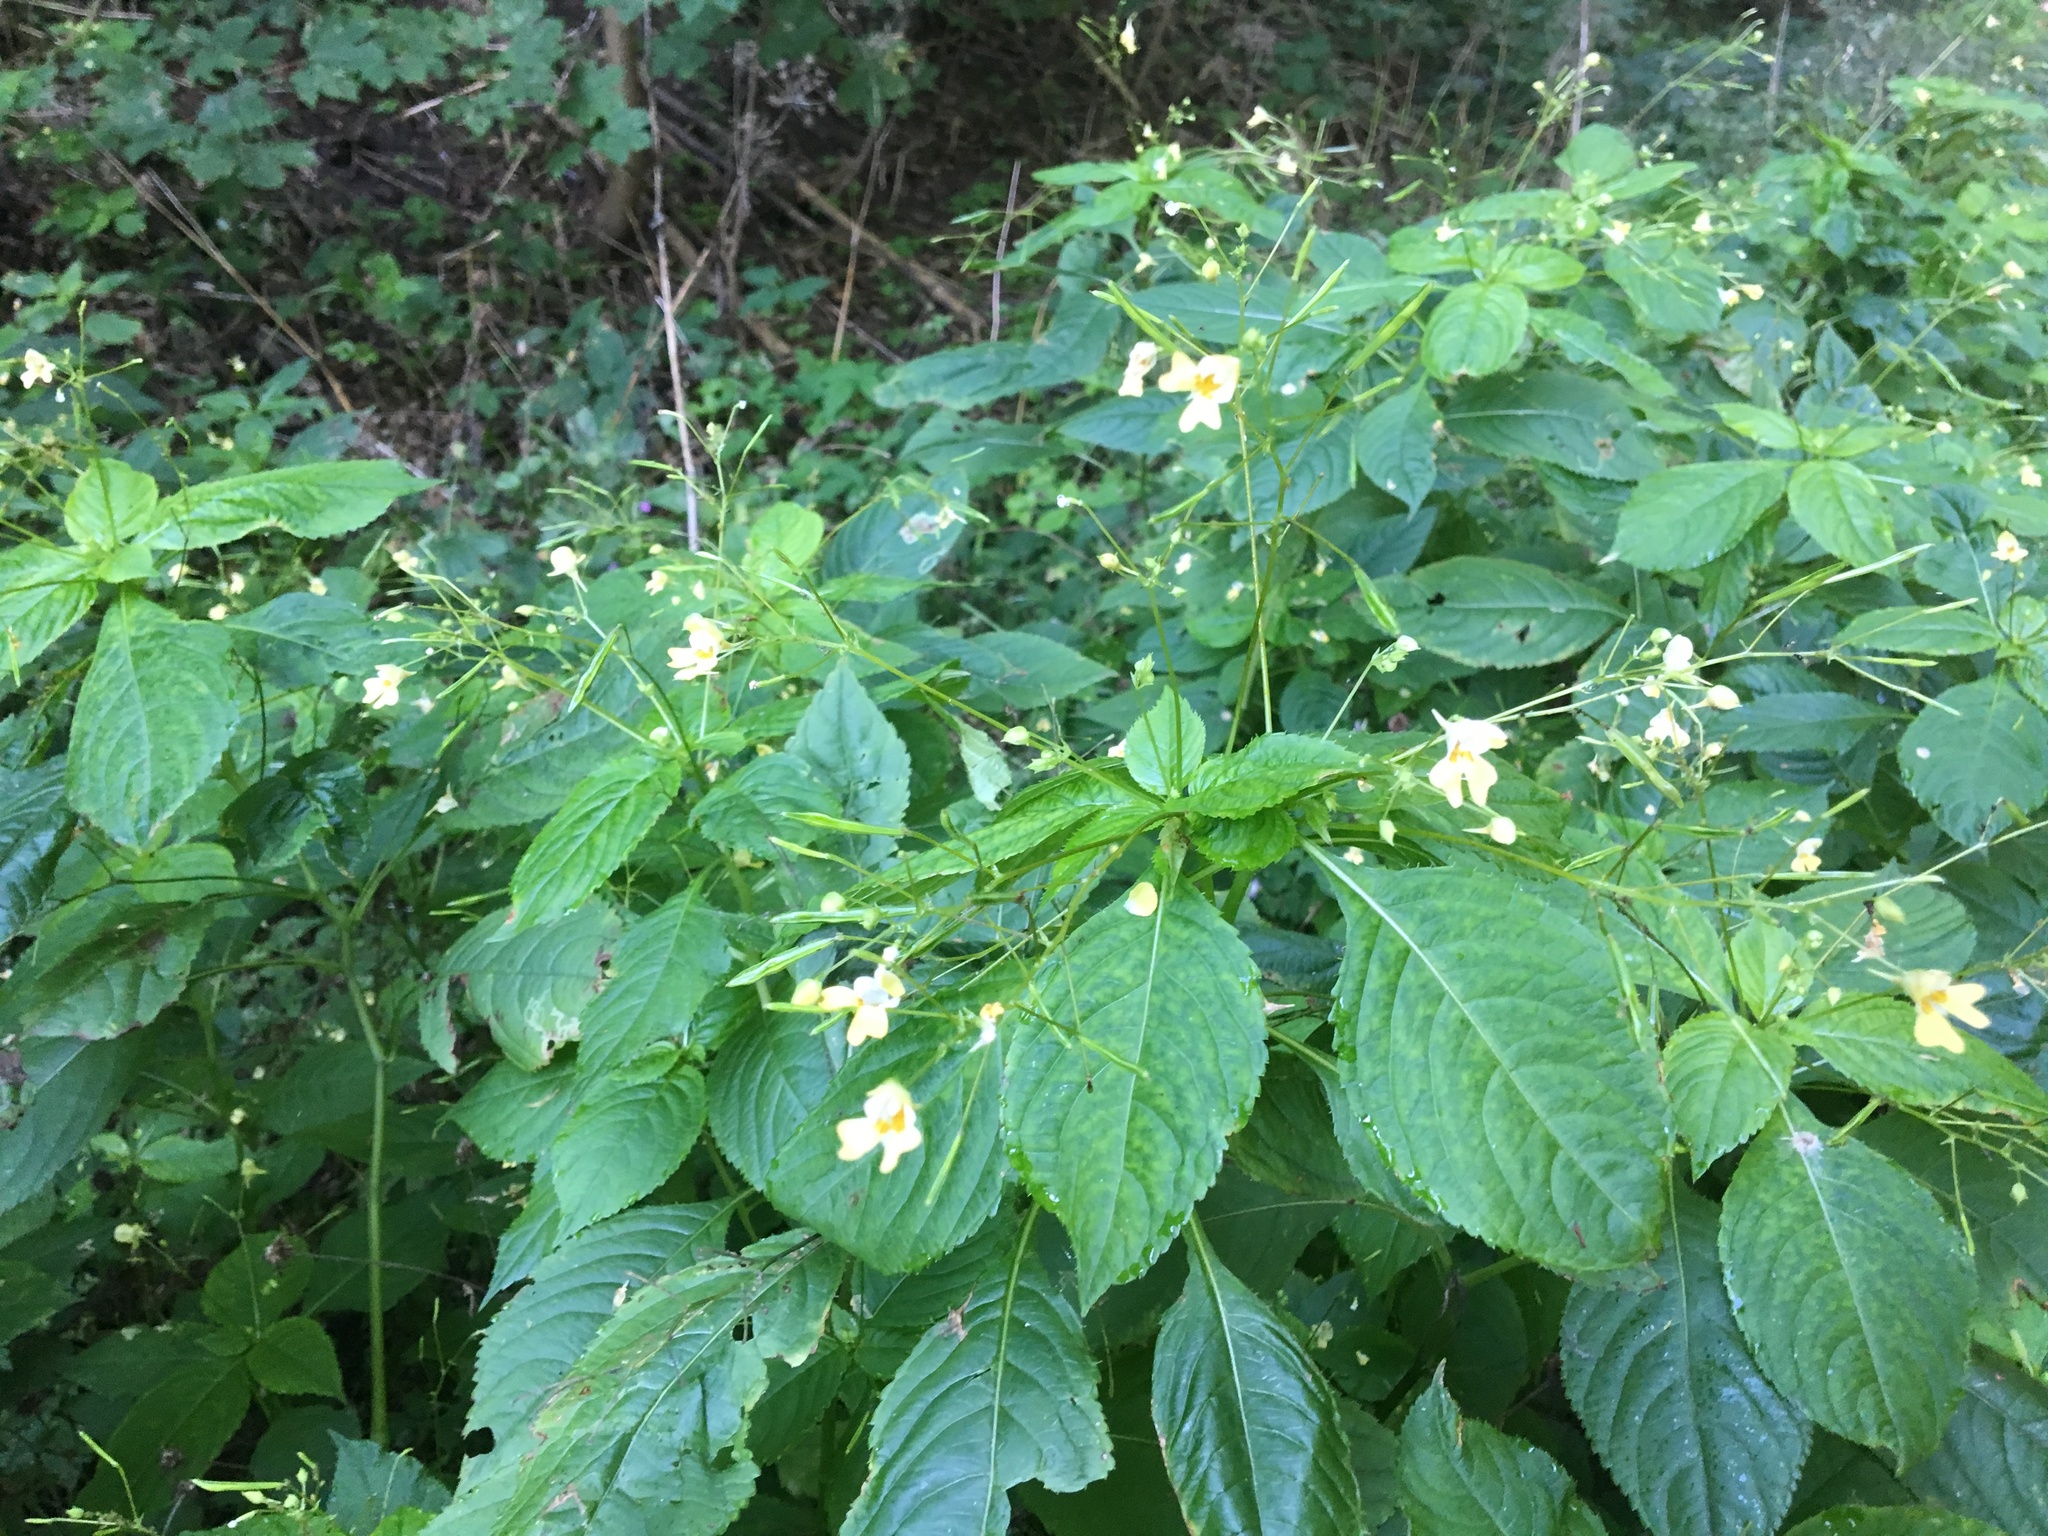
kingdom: Plantae
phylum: Tracheophyta
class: Magnoliopsida
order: Ericales
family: Balsaminaceae
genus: Impatiens
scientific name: Impatiens parviflora
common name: Small balsam
